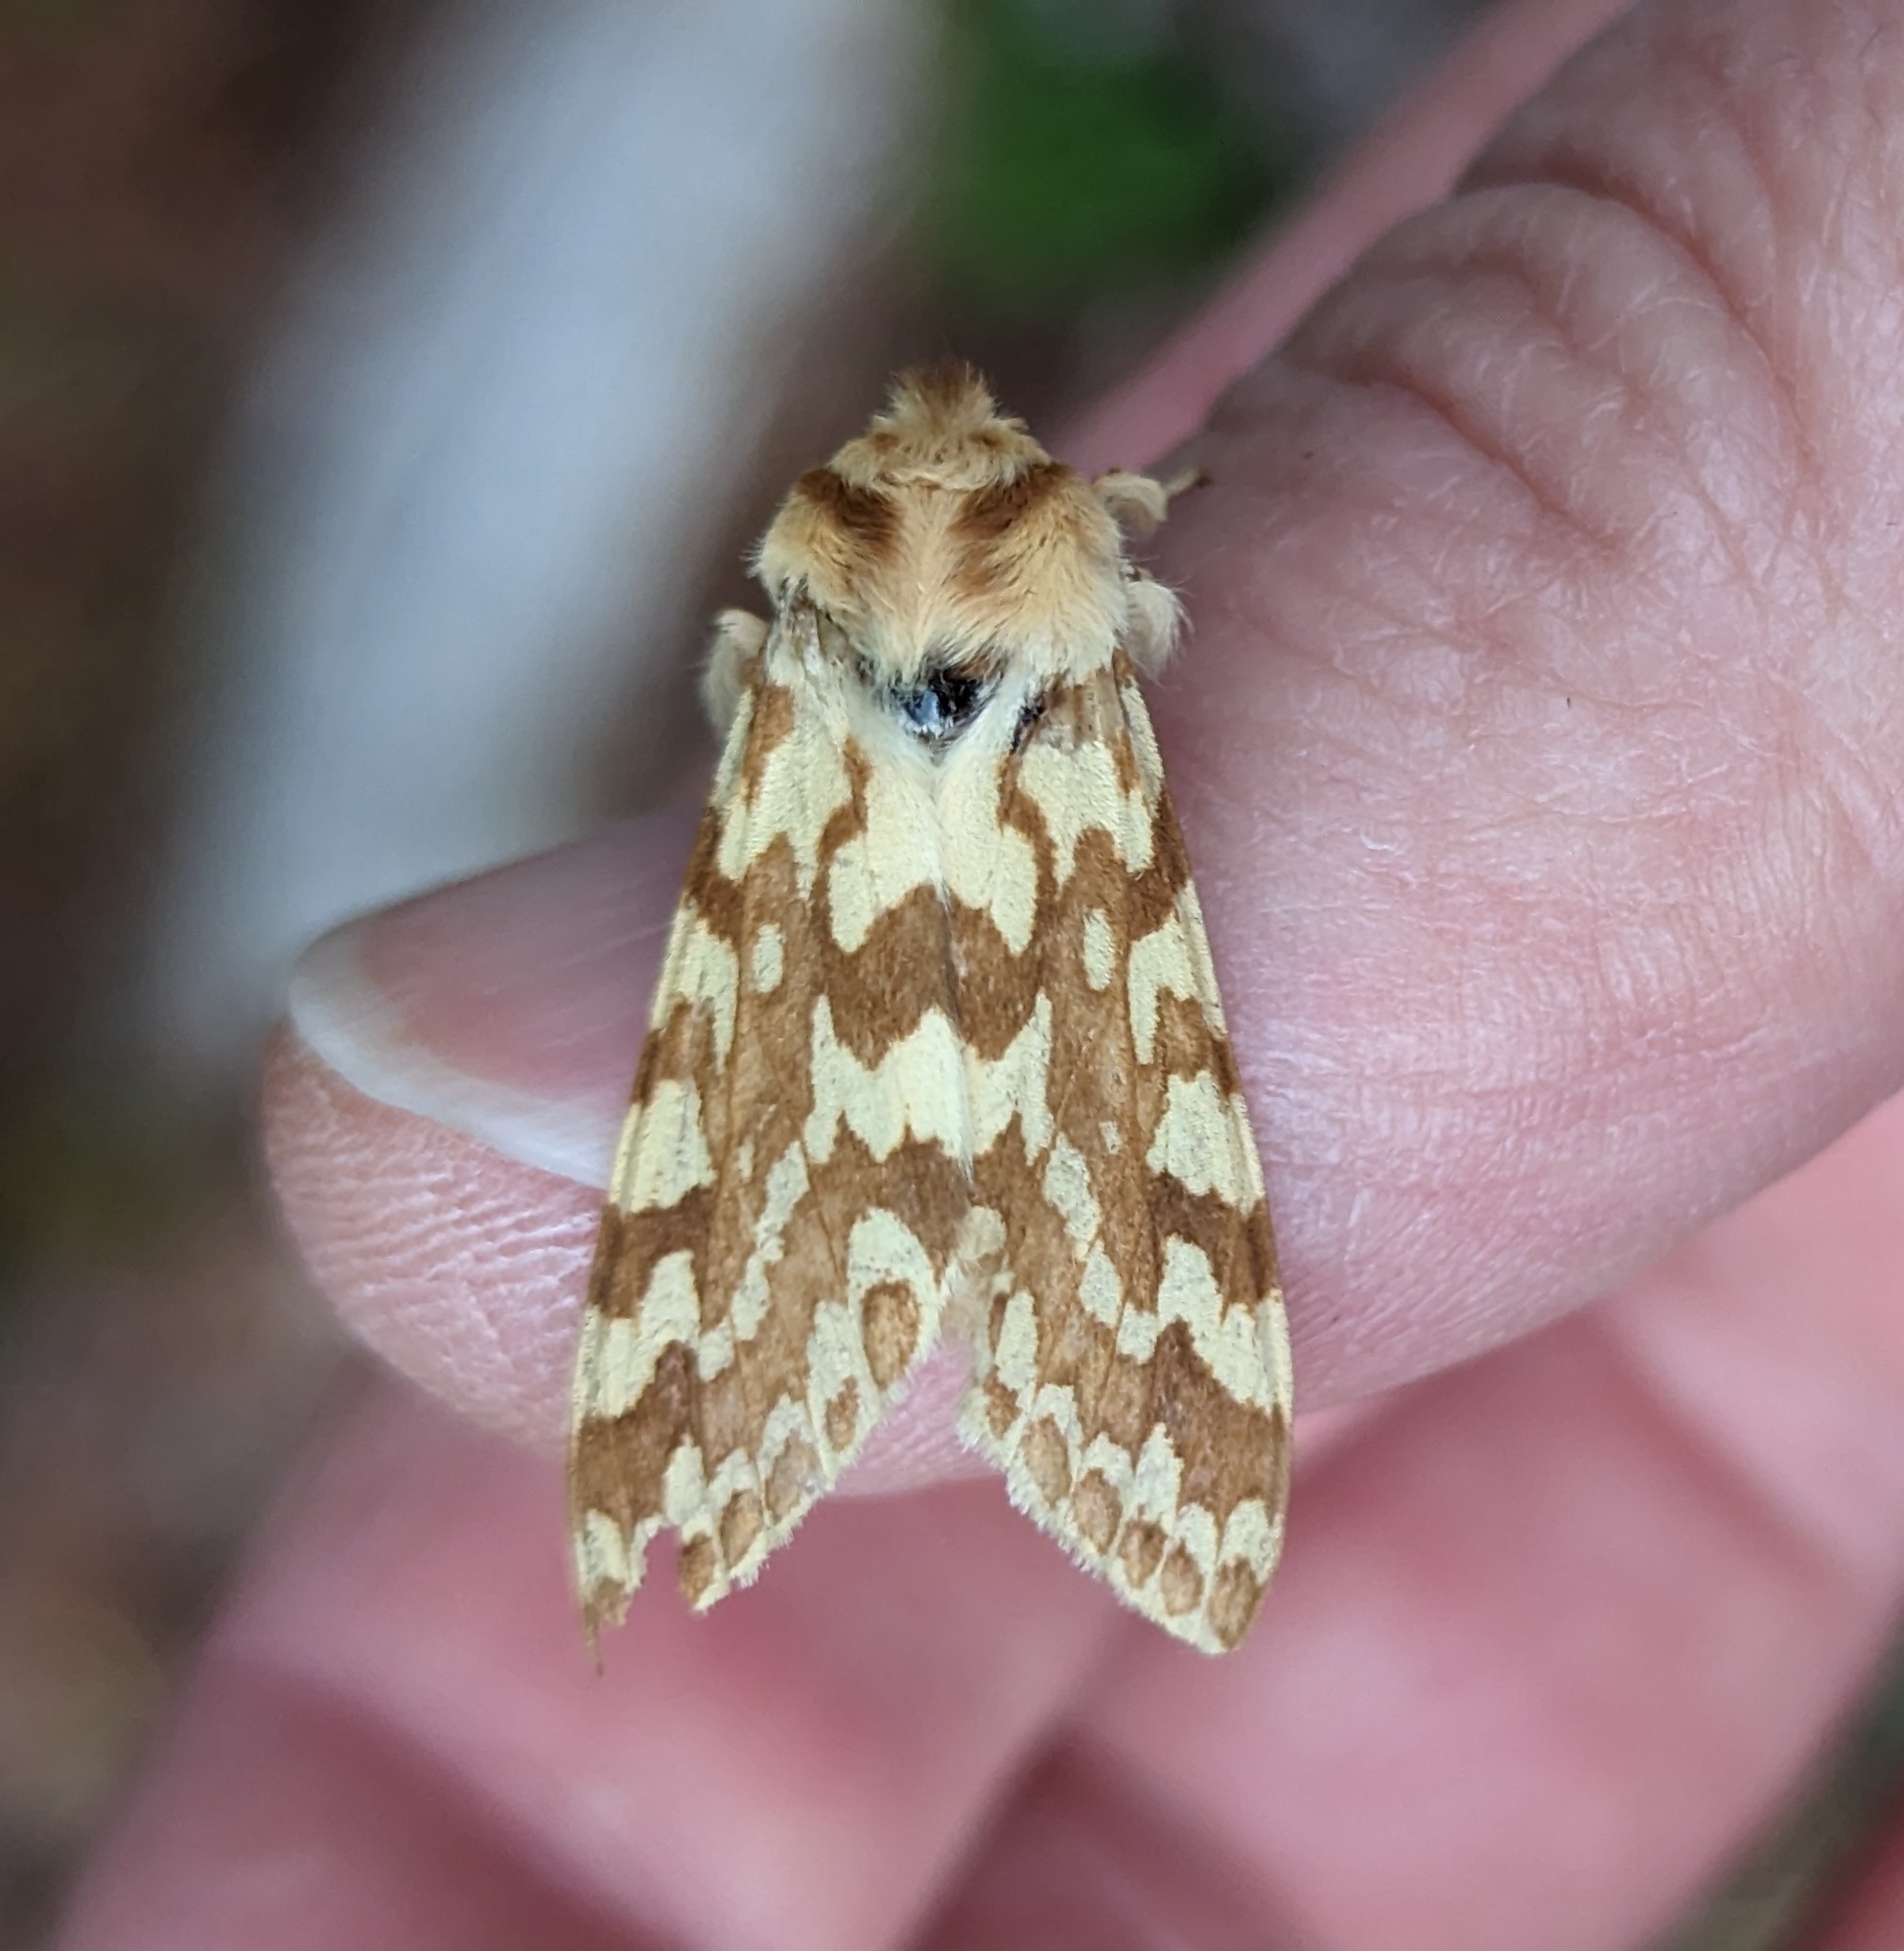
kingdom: Animalia
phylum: Arthropoda
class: Insecta
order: Lepidoptera
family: Erebidae
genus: Lophocampa
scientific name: Lophocampa maculata
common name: Spotted tussock moth
